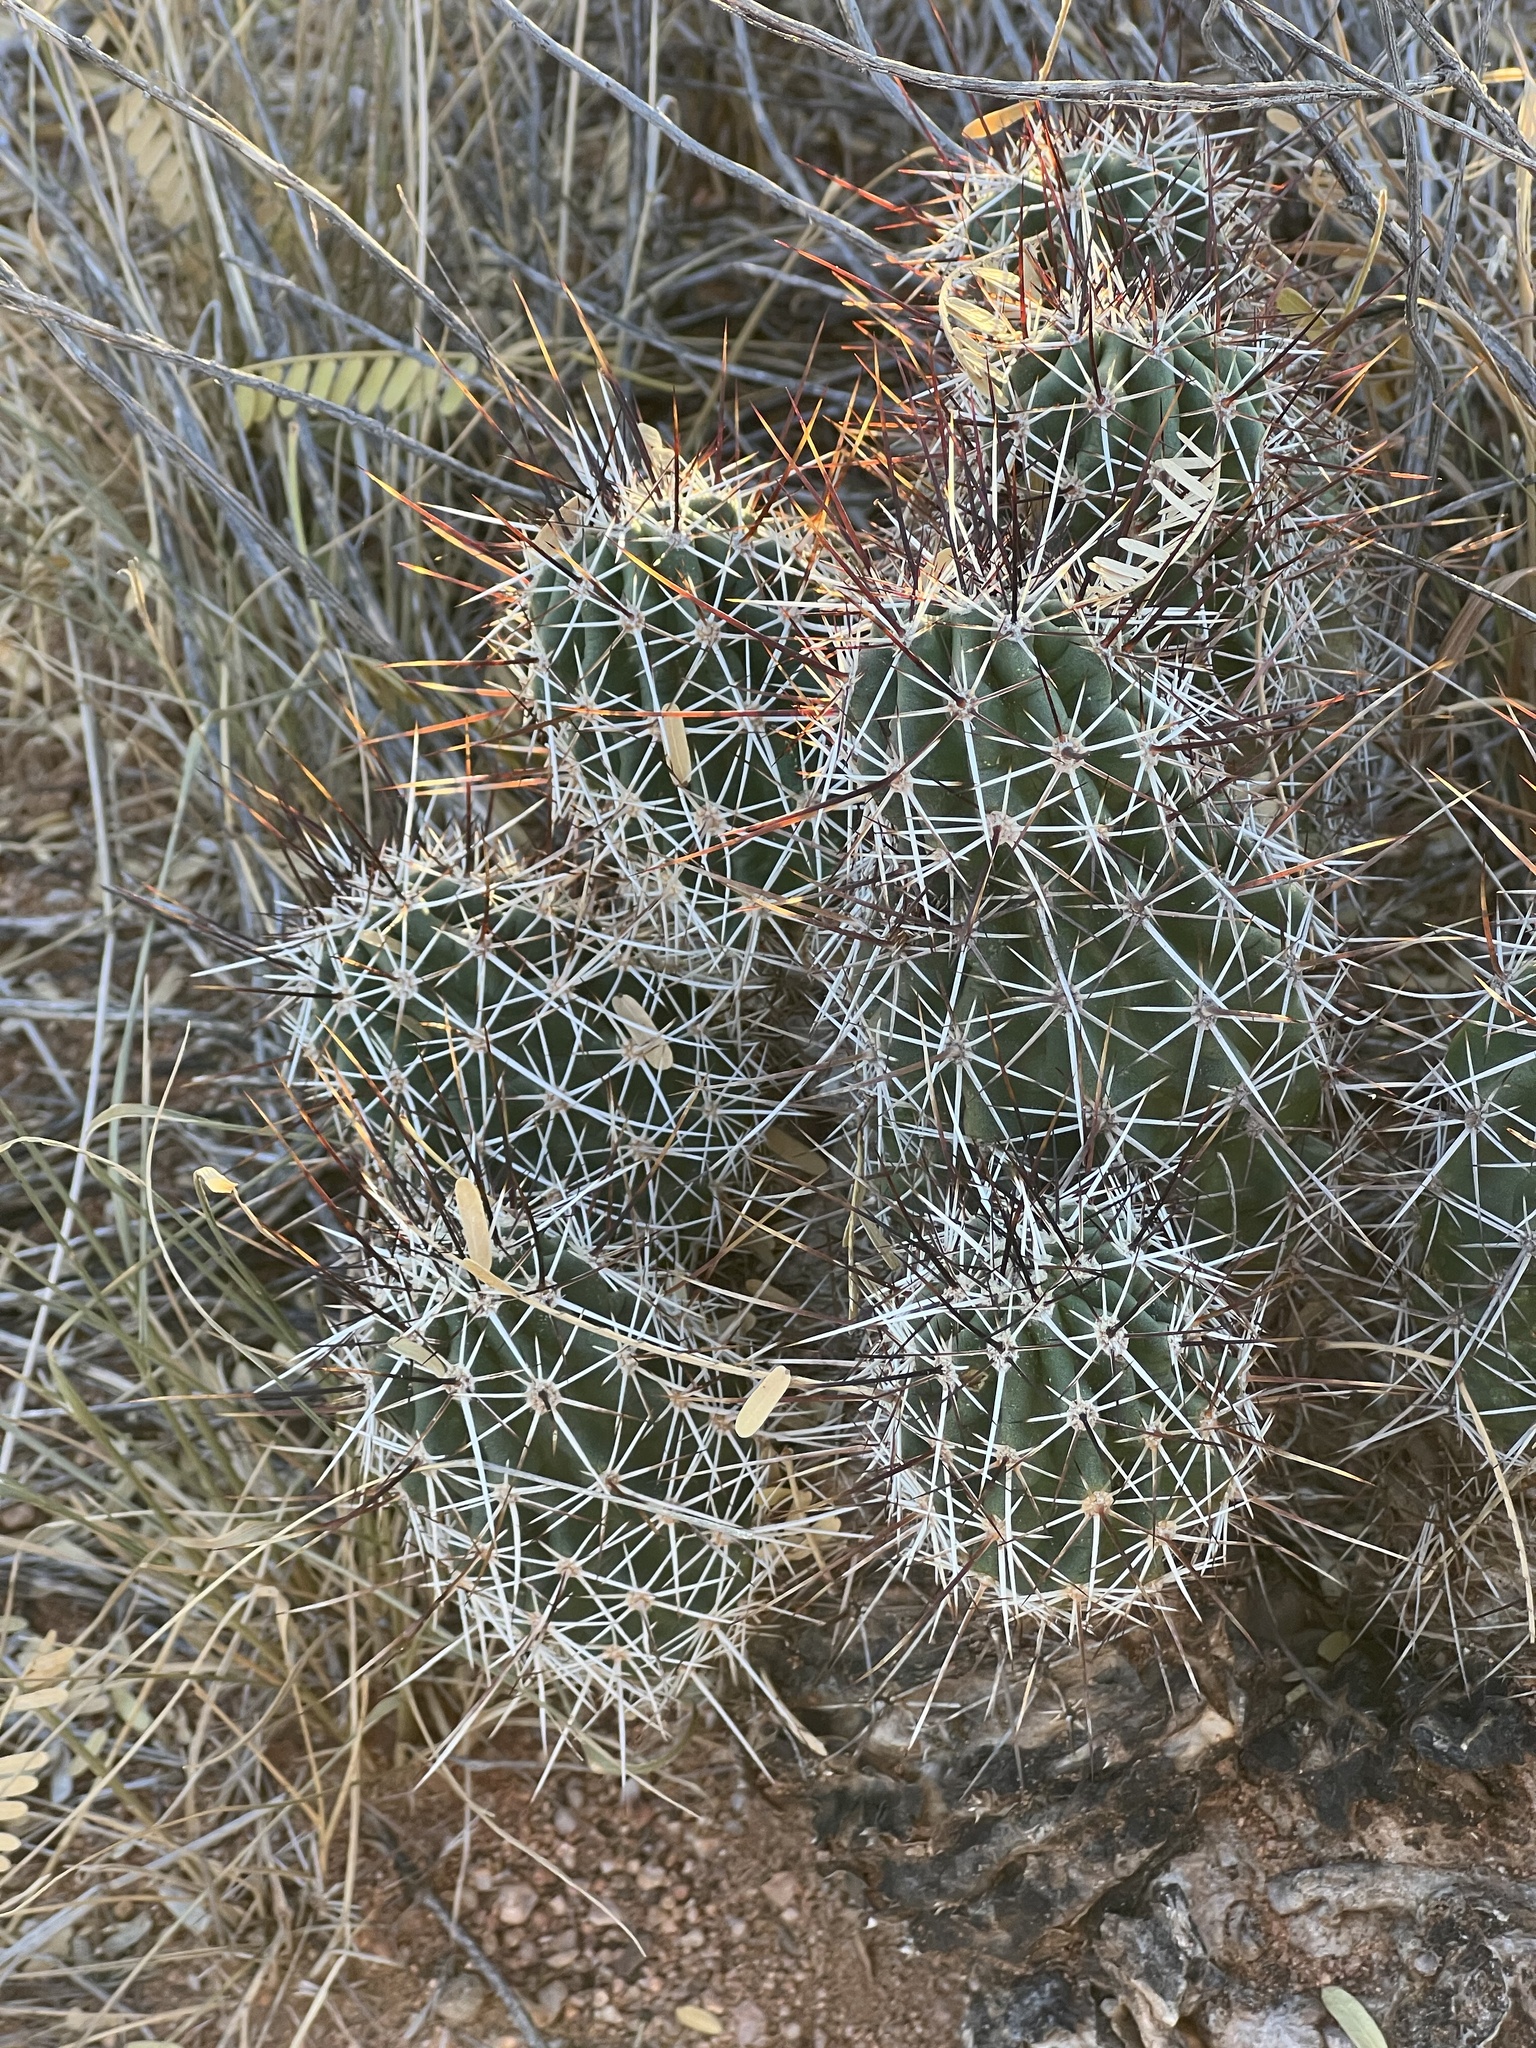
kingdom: Plantae
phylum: Tracheophyta
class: Magnoliopsida
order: Caryophyllales
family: Cactaceae
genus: Echinocereus
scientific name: Echinocereus fendleri
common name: Fendler's hedgehog cactus
